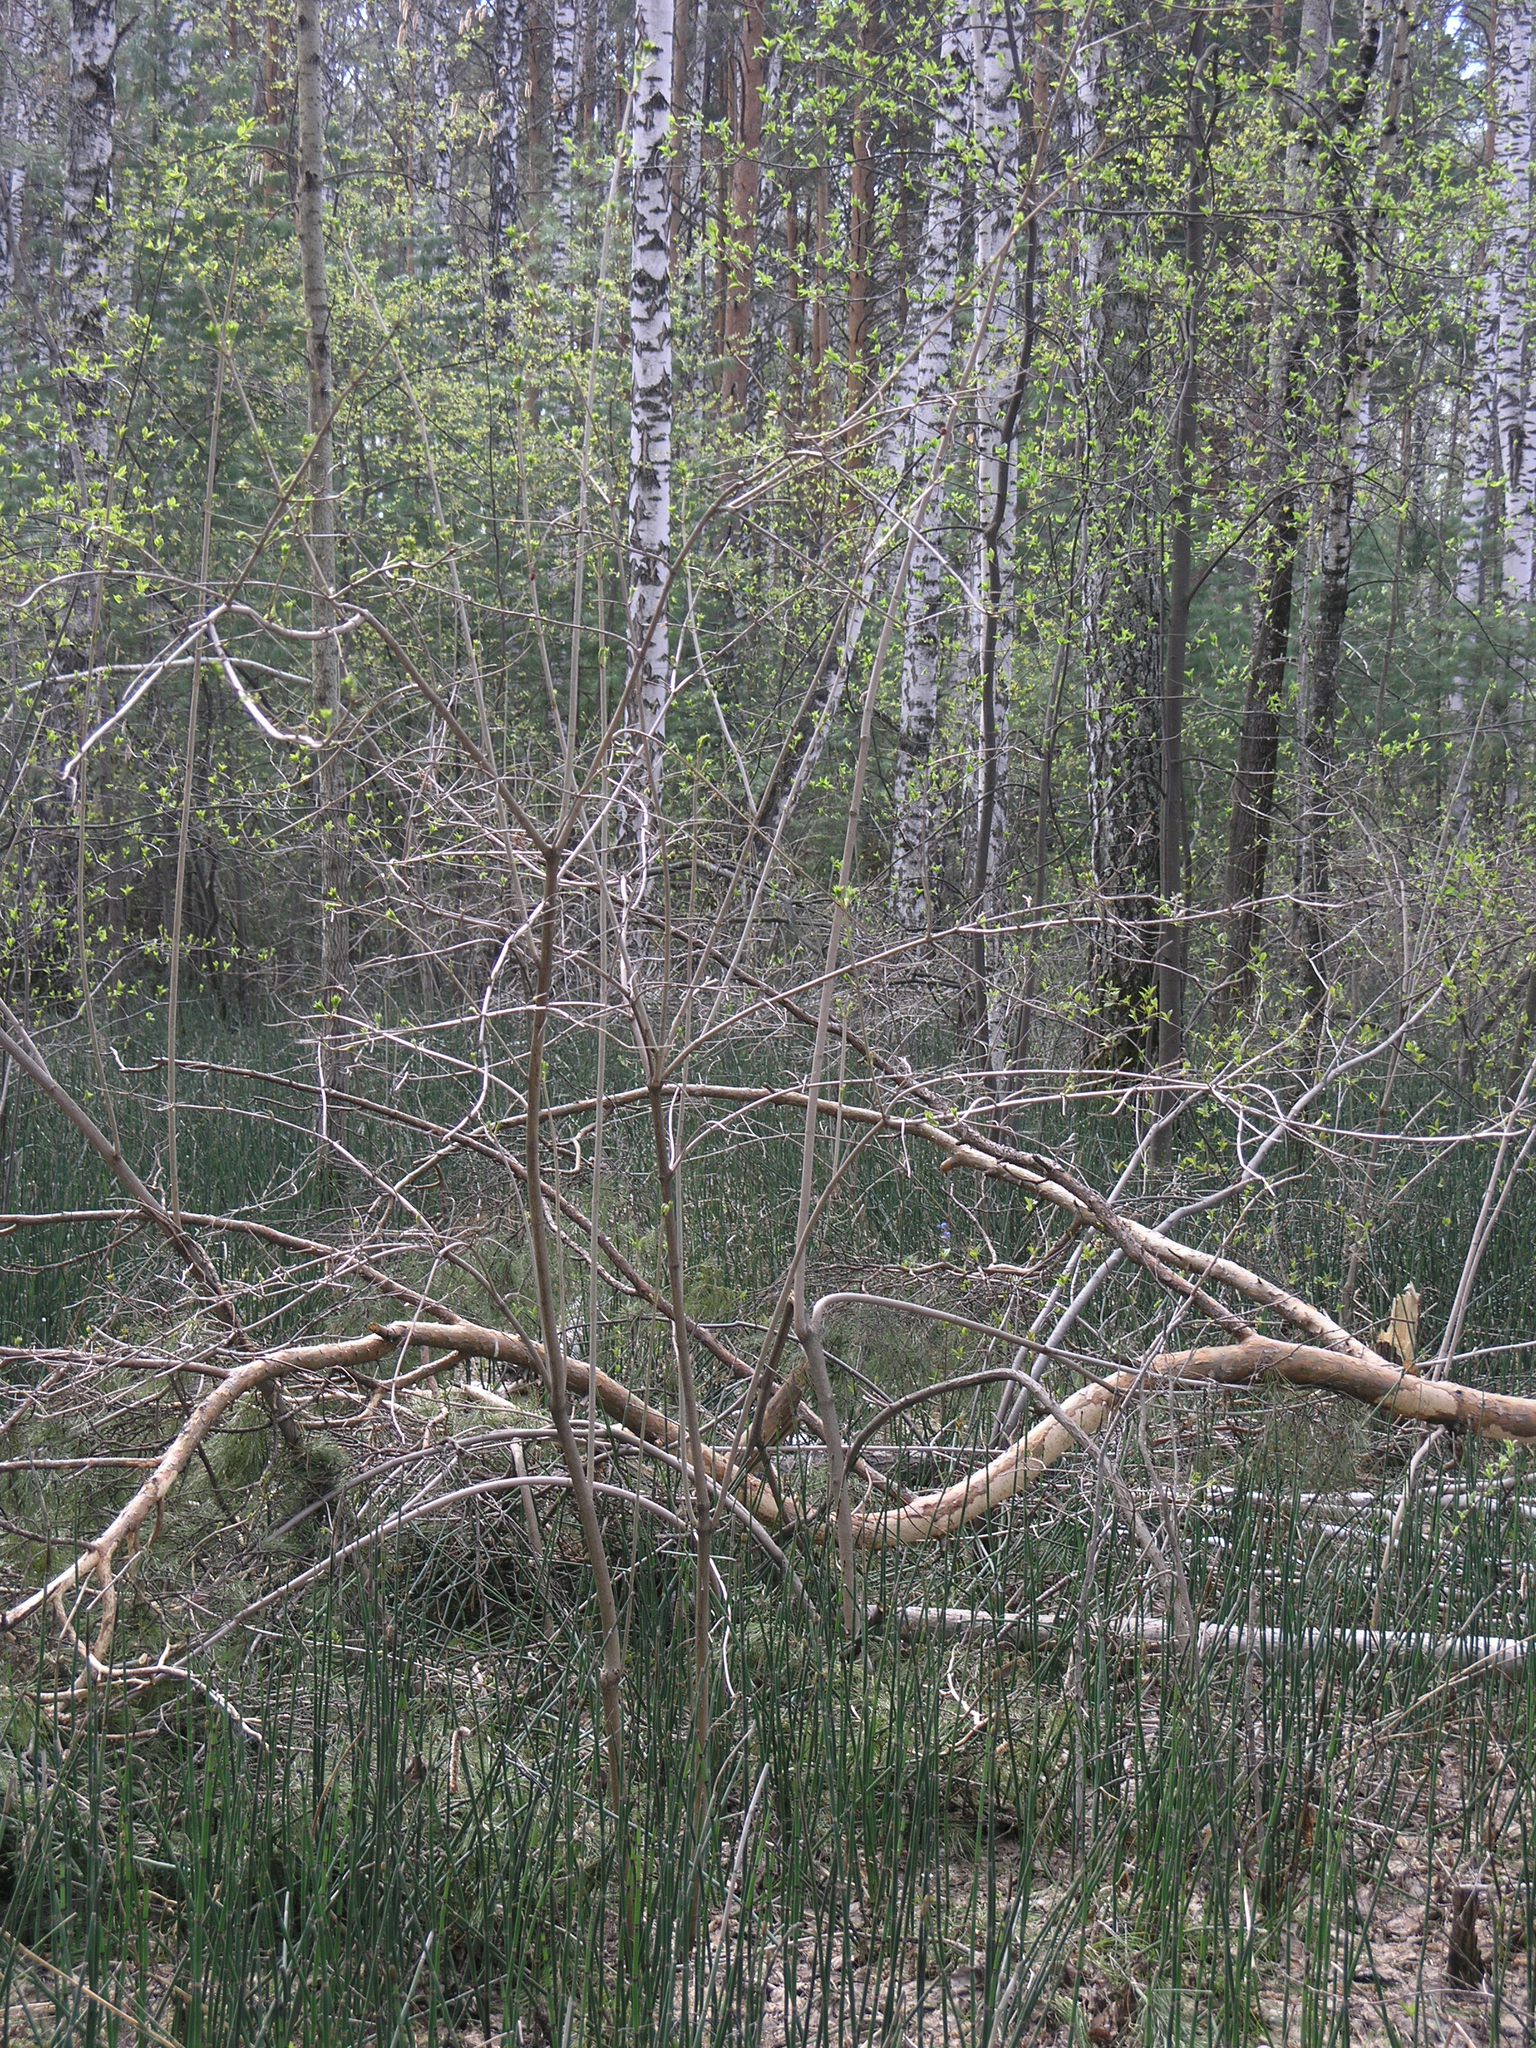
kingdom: Plantae
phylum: Tracheophyta
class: Polypodiopsida
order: Equisetales
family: Equisetaceae
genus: Equisetum
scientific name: Equisetum hyemale
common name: Rough horsetail
